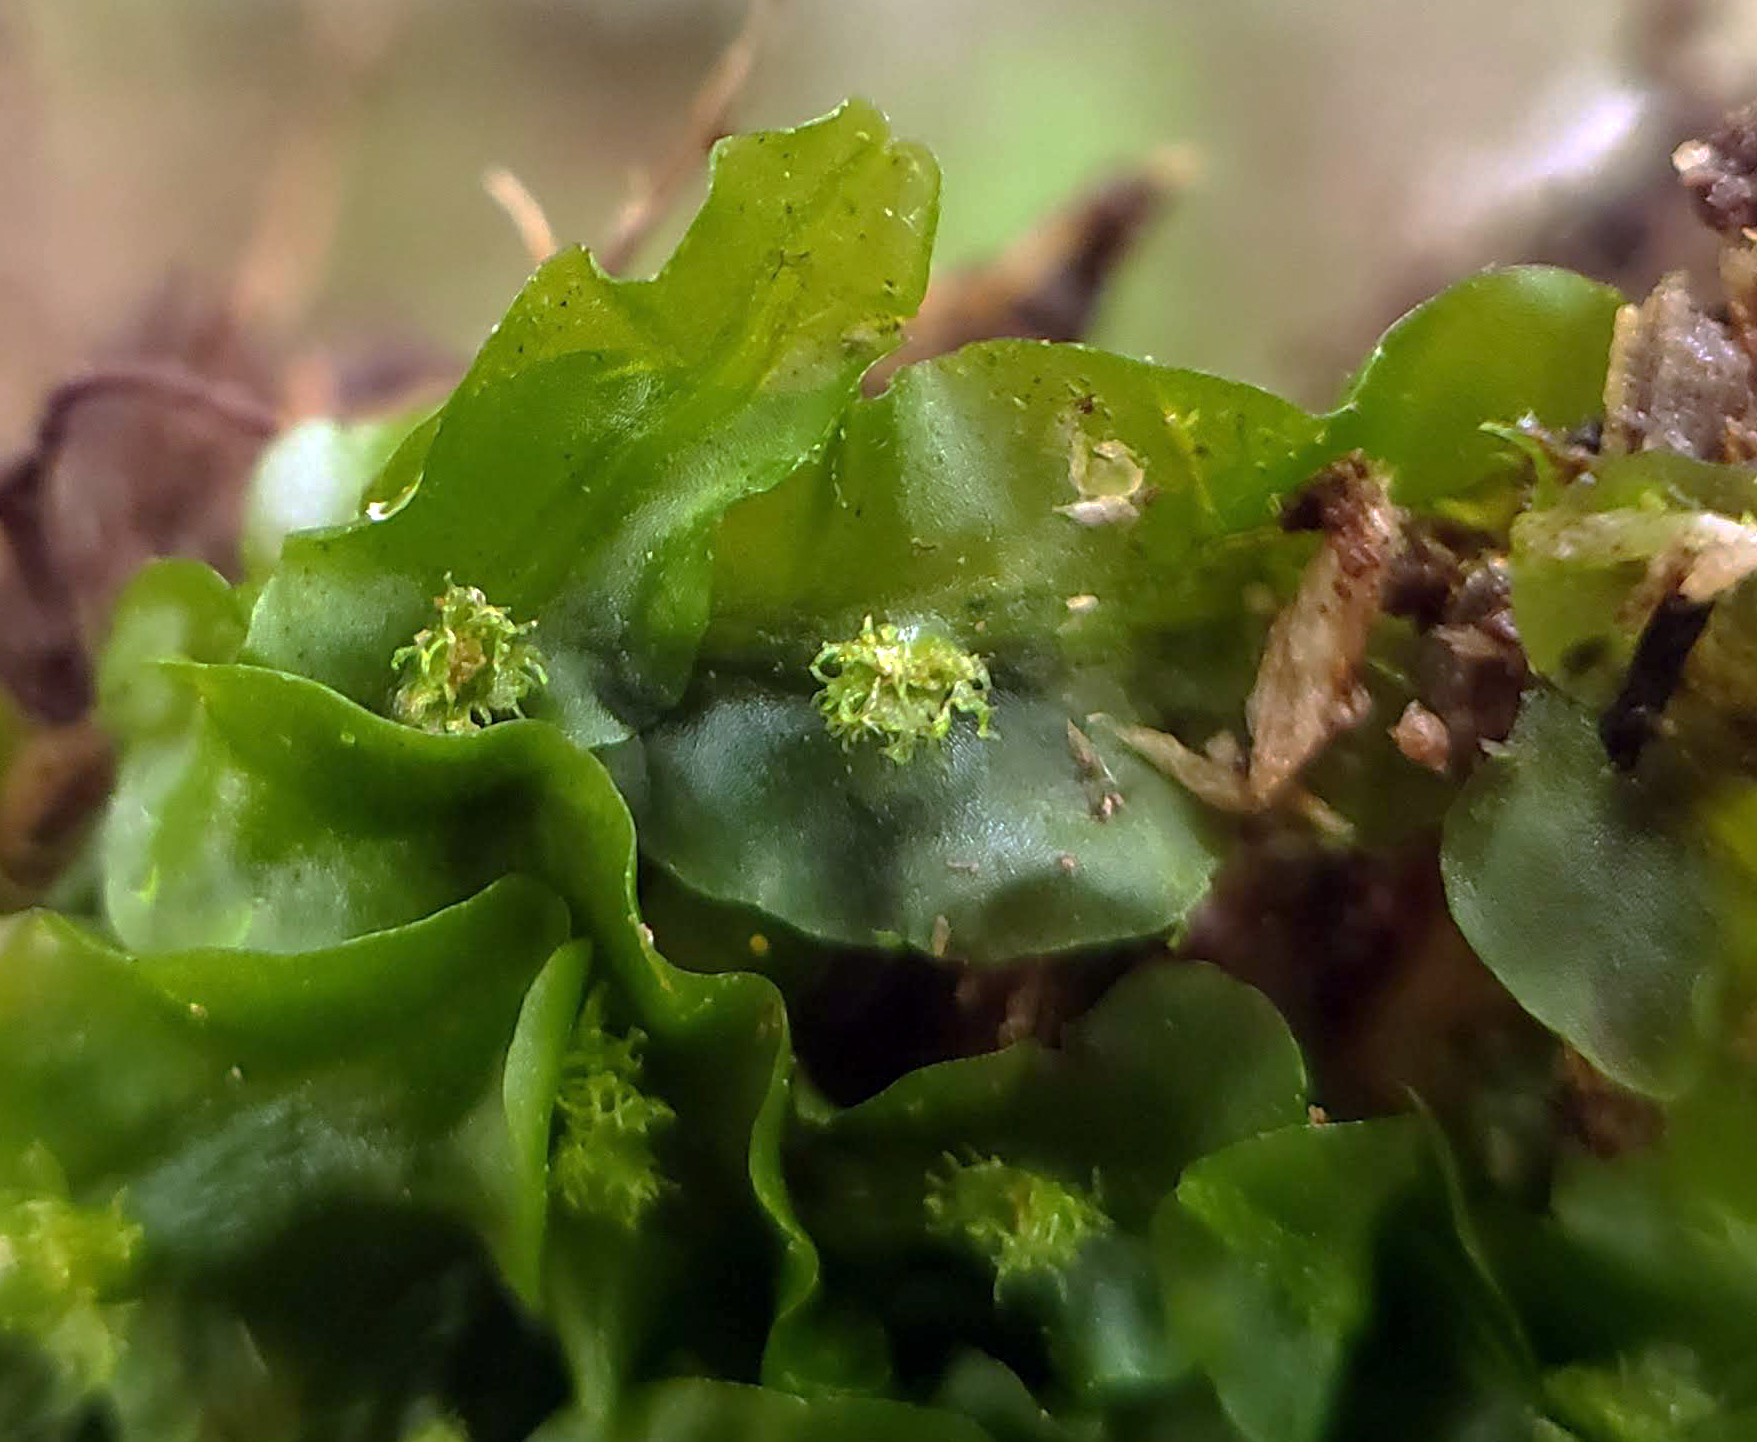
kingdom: Plantae
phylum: Marchantiophyta
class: Jungermanniopsida
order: Pallaviciniales
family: Pallaviciniaceae
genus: Pallavicinia
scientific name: Pallavicinia lyellii
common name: Veilwort
